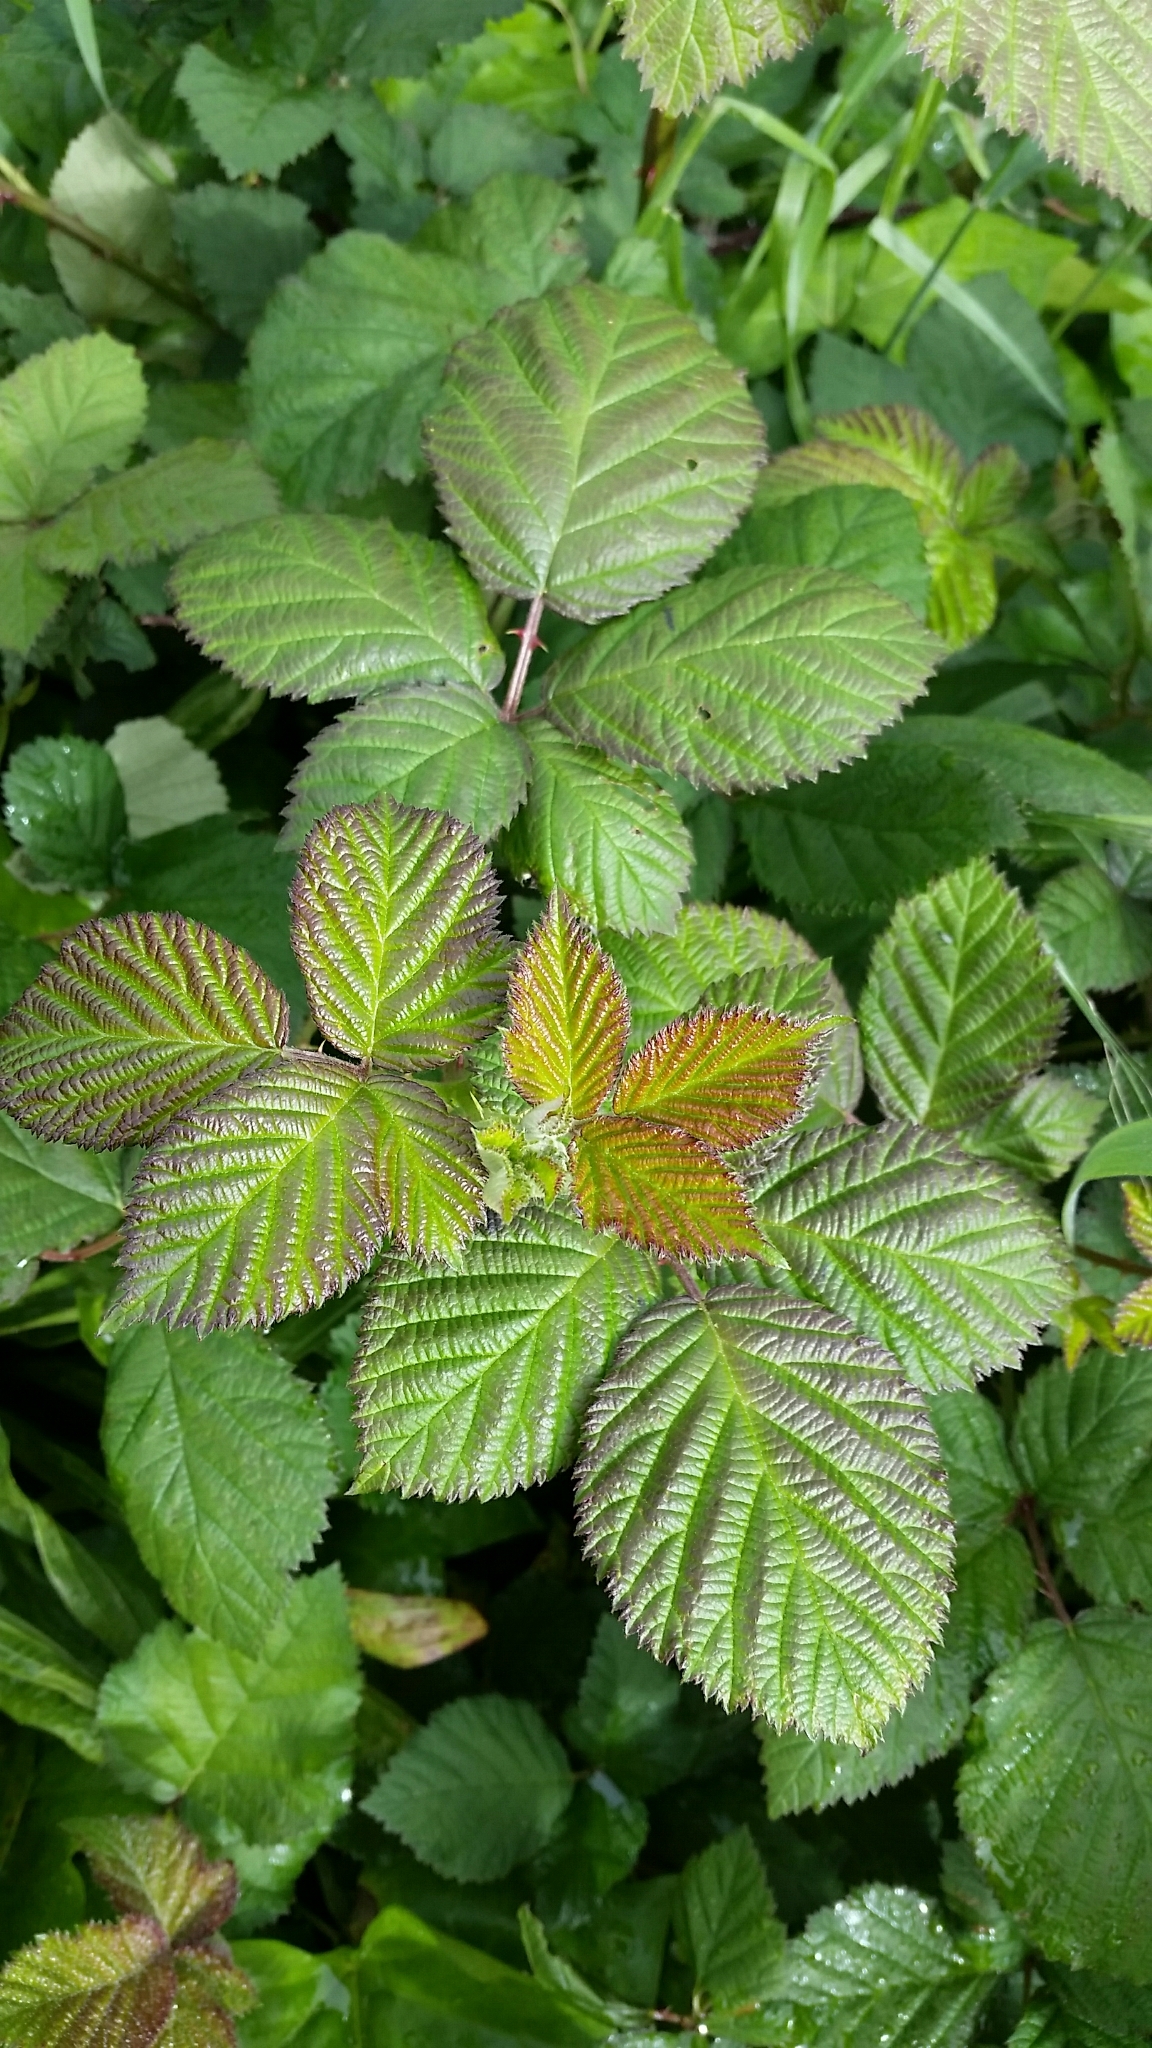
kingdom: Plantae
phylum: Tracheophyta
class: Magnoliopsida
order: Rosales
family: Rosaceae
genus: Rubus
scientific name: Rubus armeniacus
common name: Himalayan blackberry
